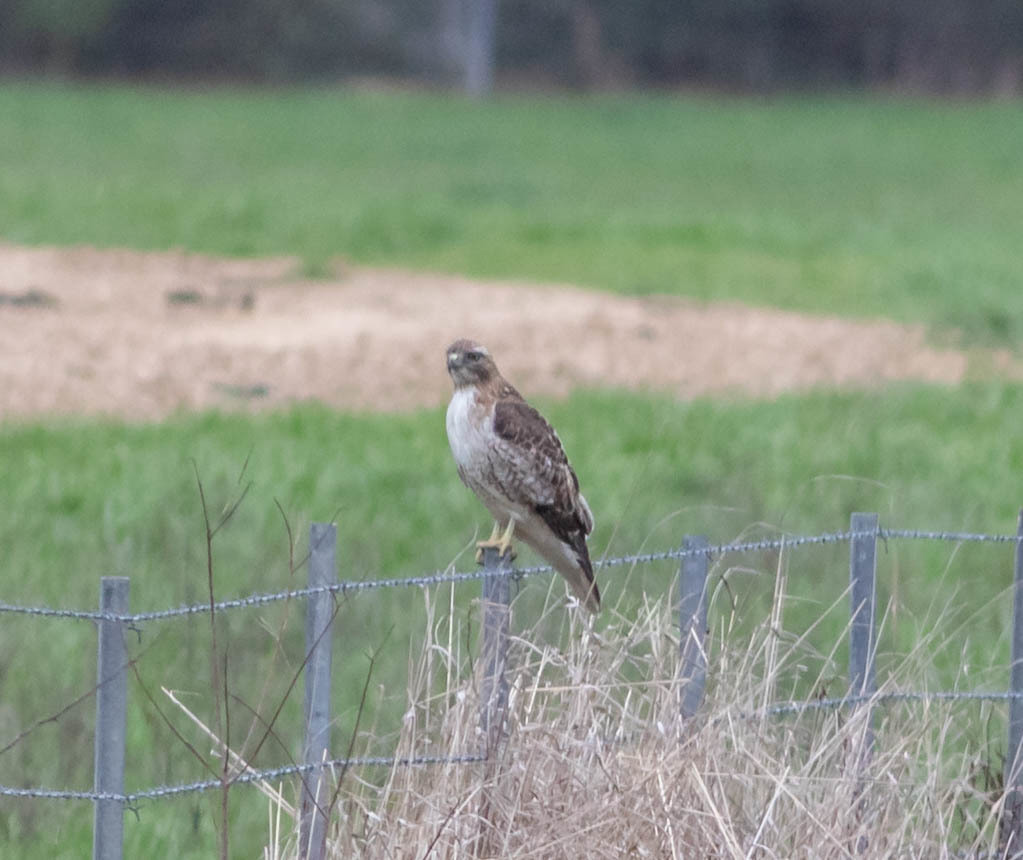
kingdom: Animalia
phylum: Chordata
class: Aves
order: Accipitriformes
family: Accipitridae
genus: Buteo
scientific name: Buteo jamaicensis
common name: Red-tailed hawk
